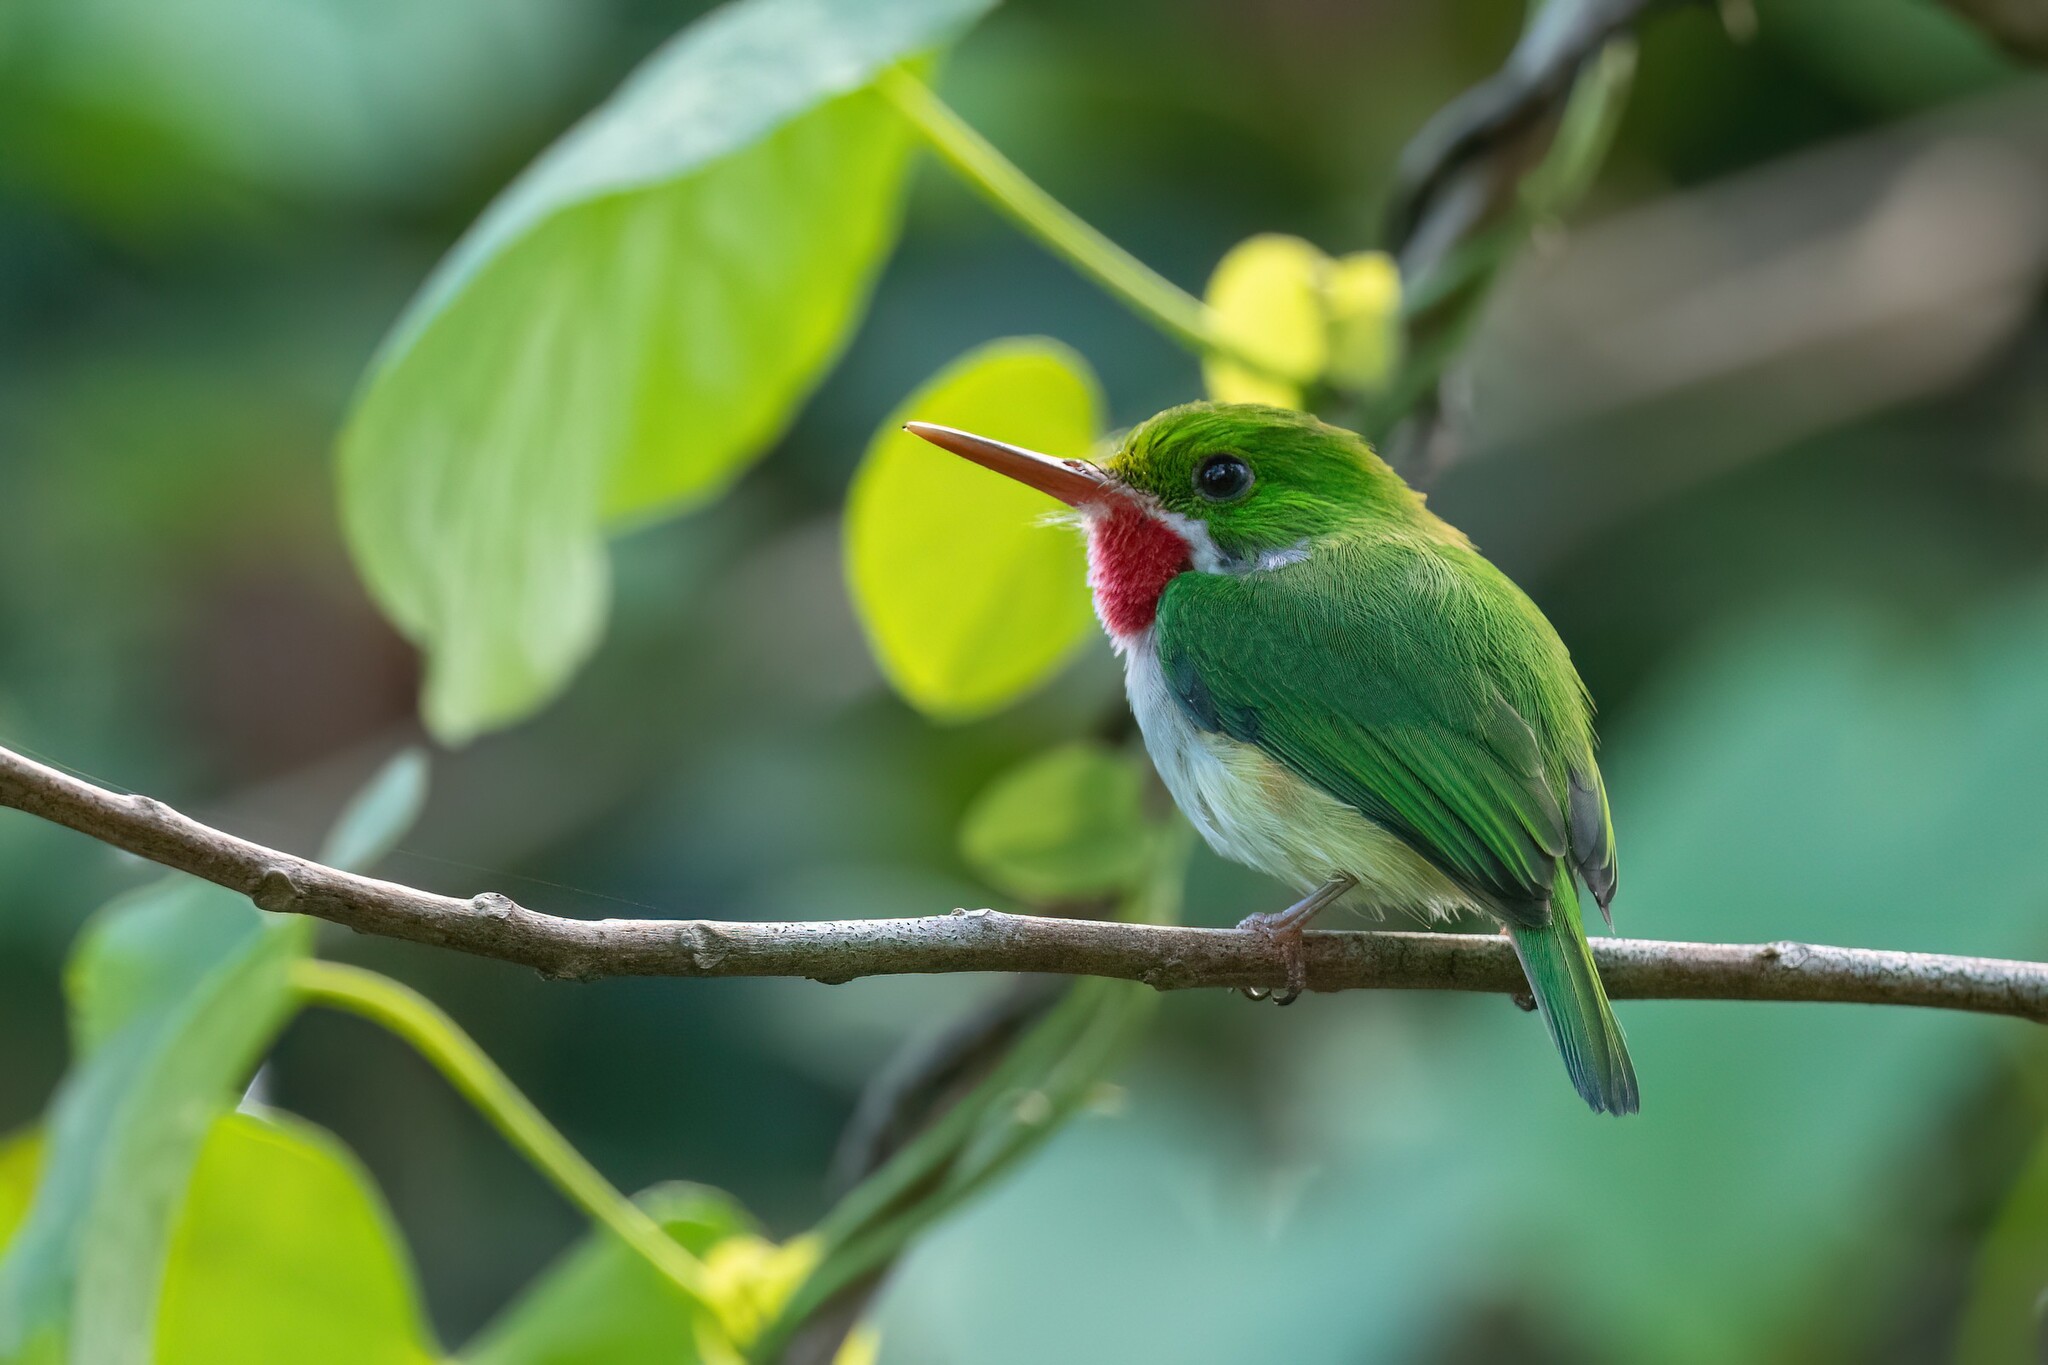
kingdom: Animalia
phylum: Chordata
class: Aves
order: Coraciiformes
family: Todidae
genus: Todus
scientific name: Todus mexicanus
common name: Puerto rican tody
